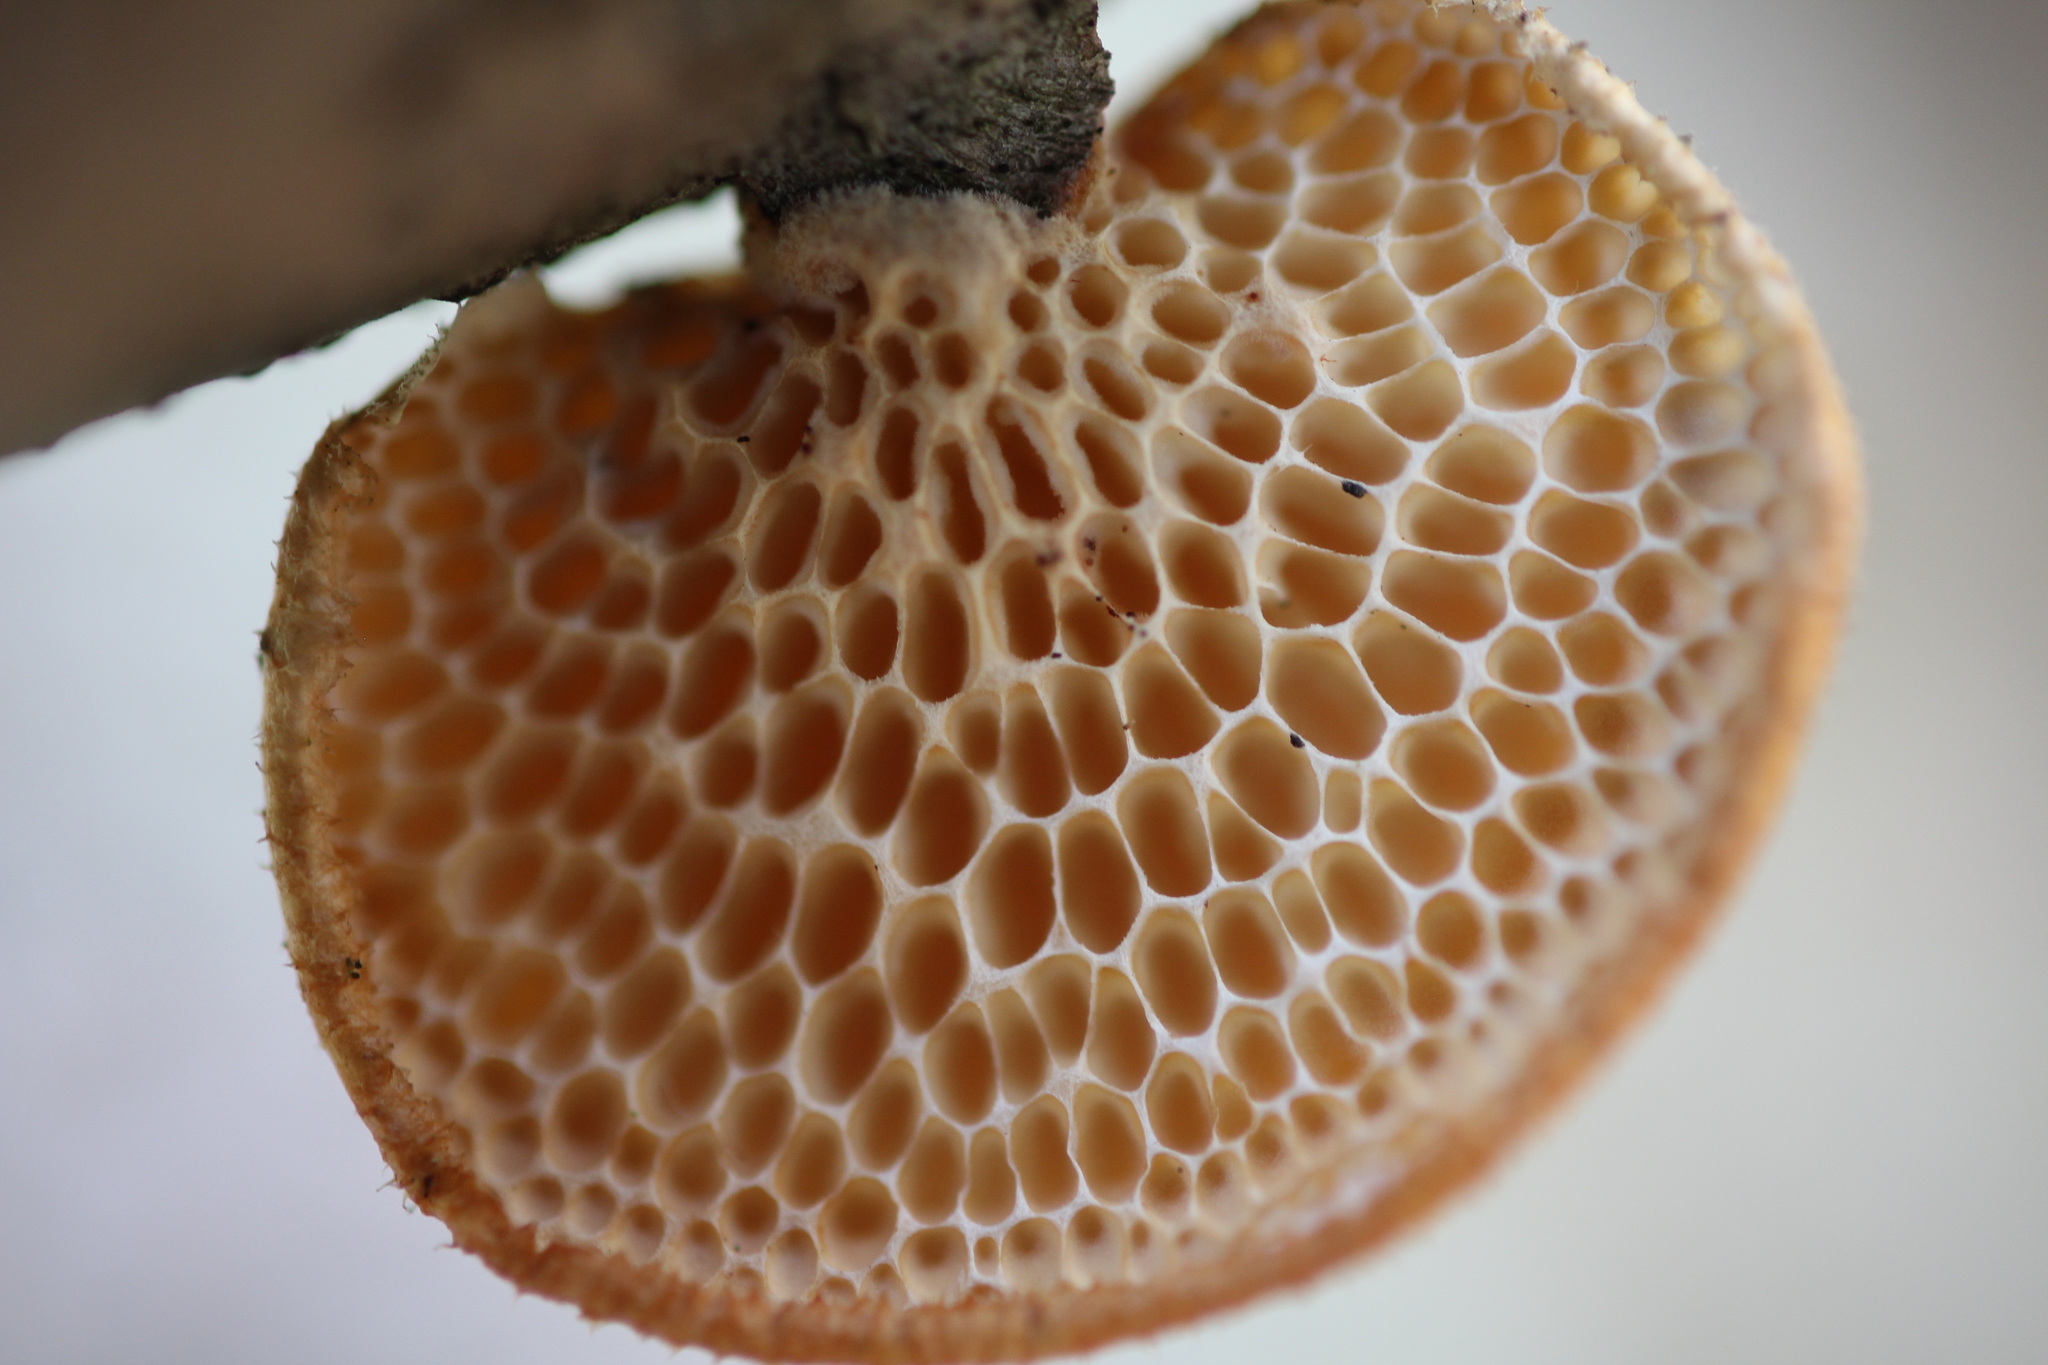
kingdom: Fungi
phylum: Basidiomycota
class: Agaricomycetes
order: Polyporales
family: Polyporaceae
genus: Neofavolus
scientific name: Neofavolus alveolaris
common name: Hexagonal-pored polypore
